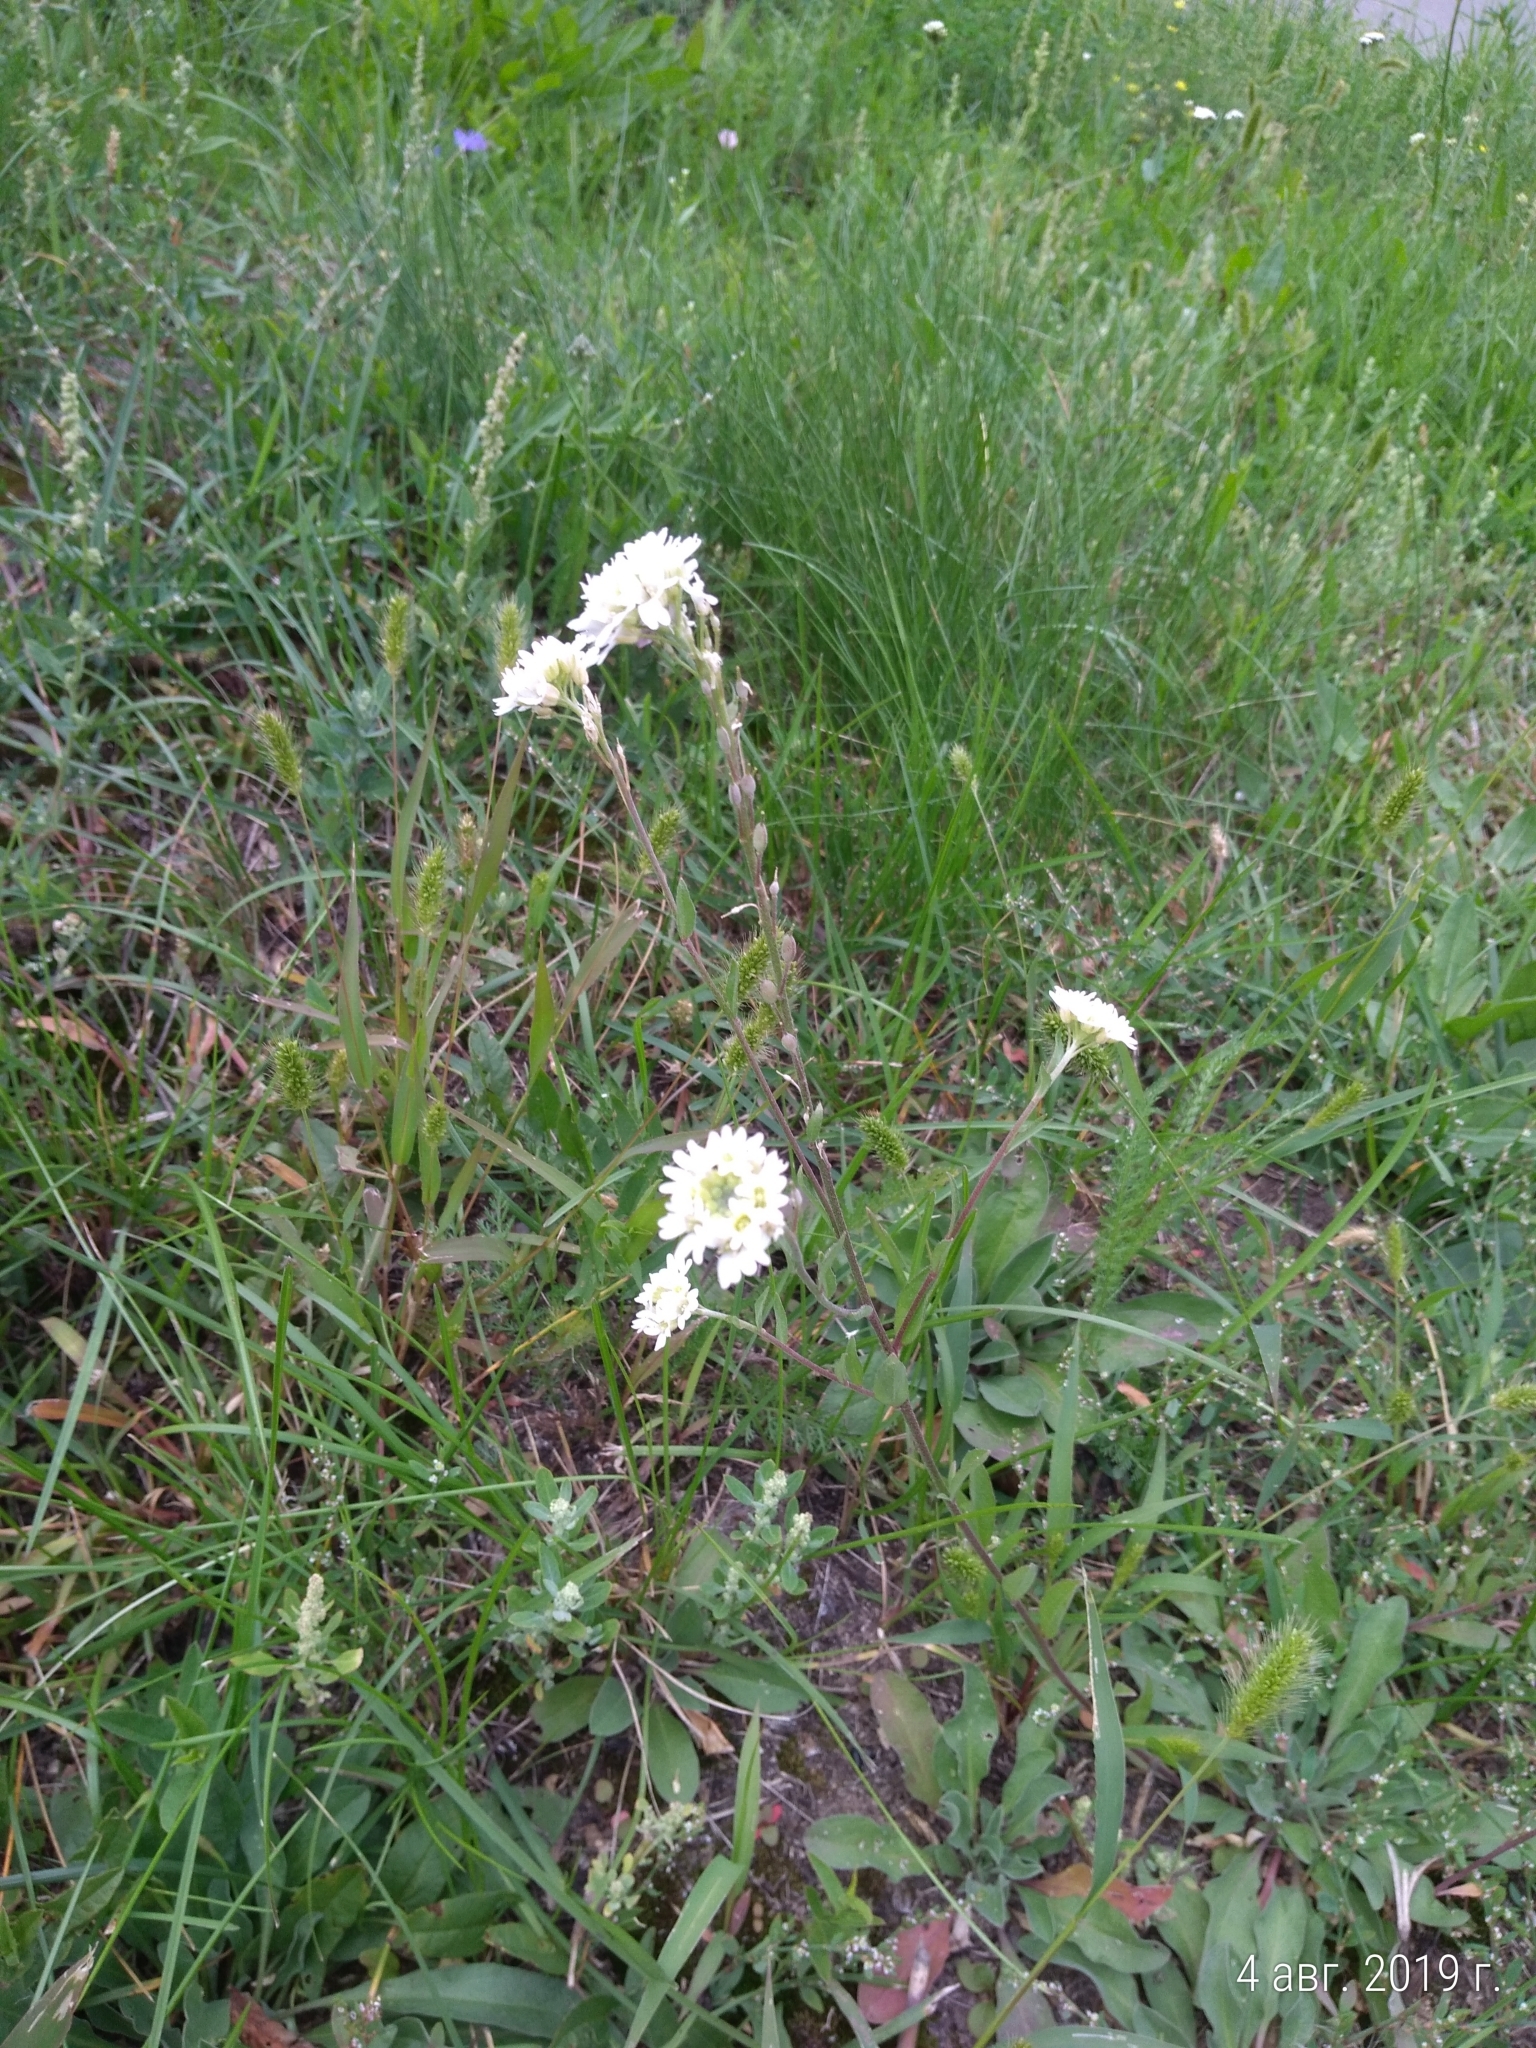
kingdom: Plantae
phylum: Tracheophyta
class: Magnoliopsida
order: Brassicales
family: Brassicaceae
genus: Berteroa
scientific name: Berteroa incana
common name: Hoary alison
